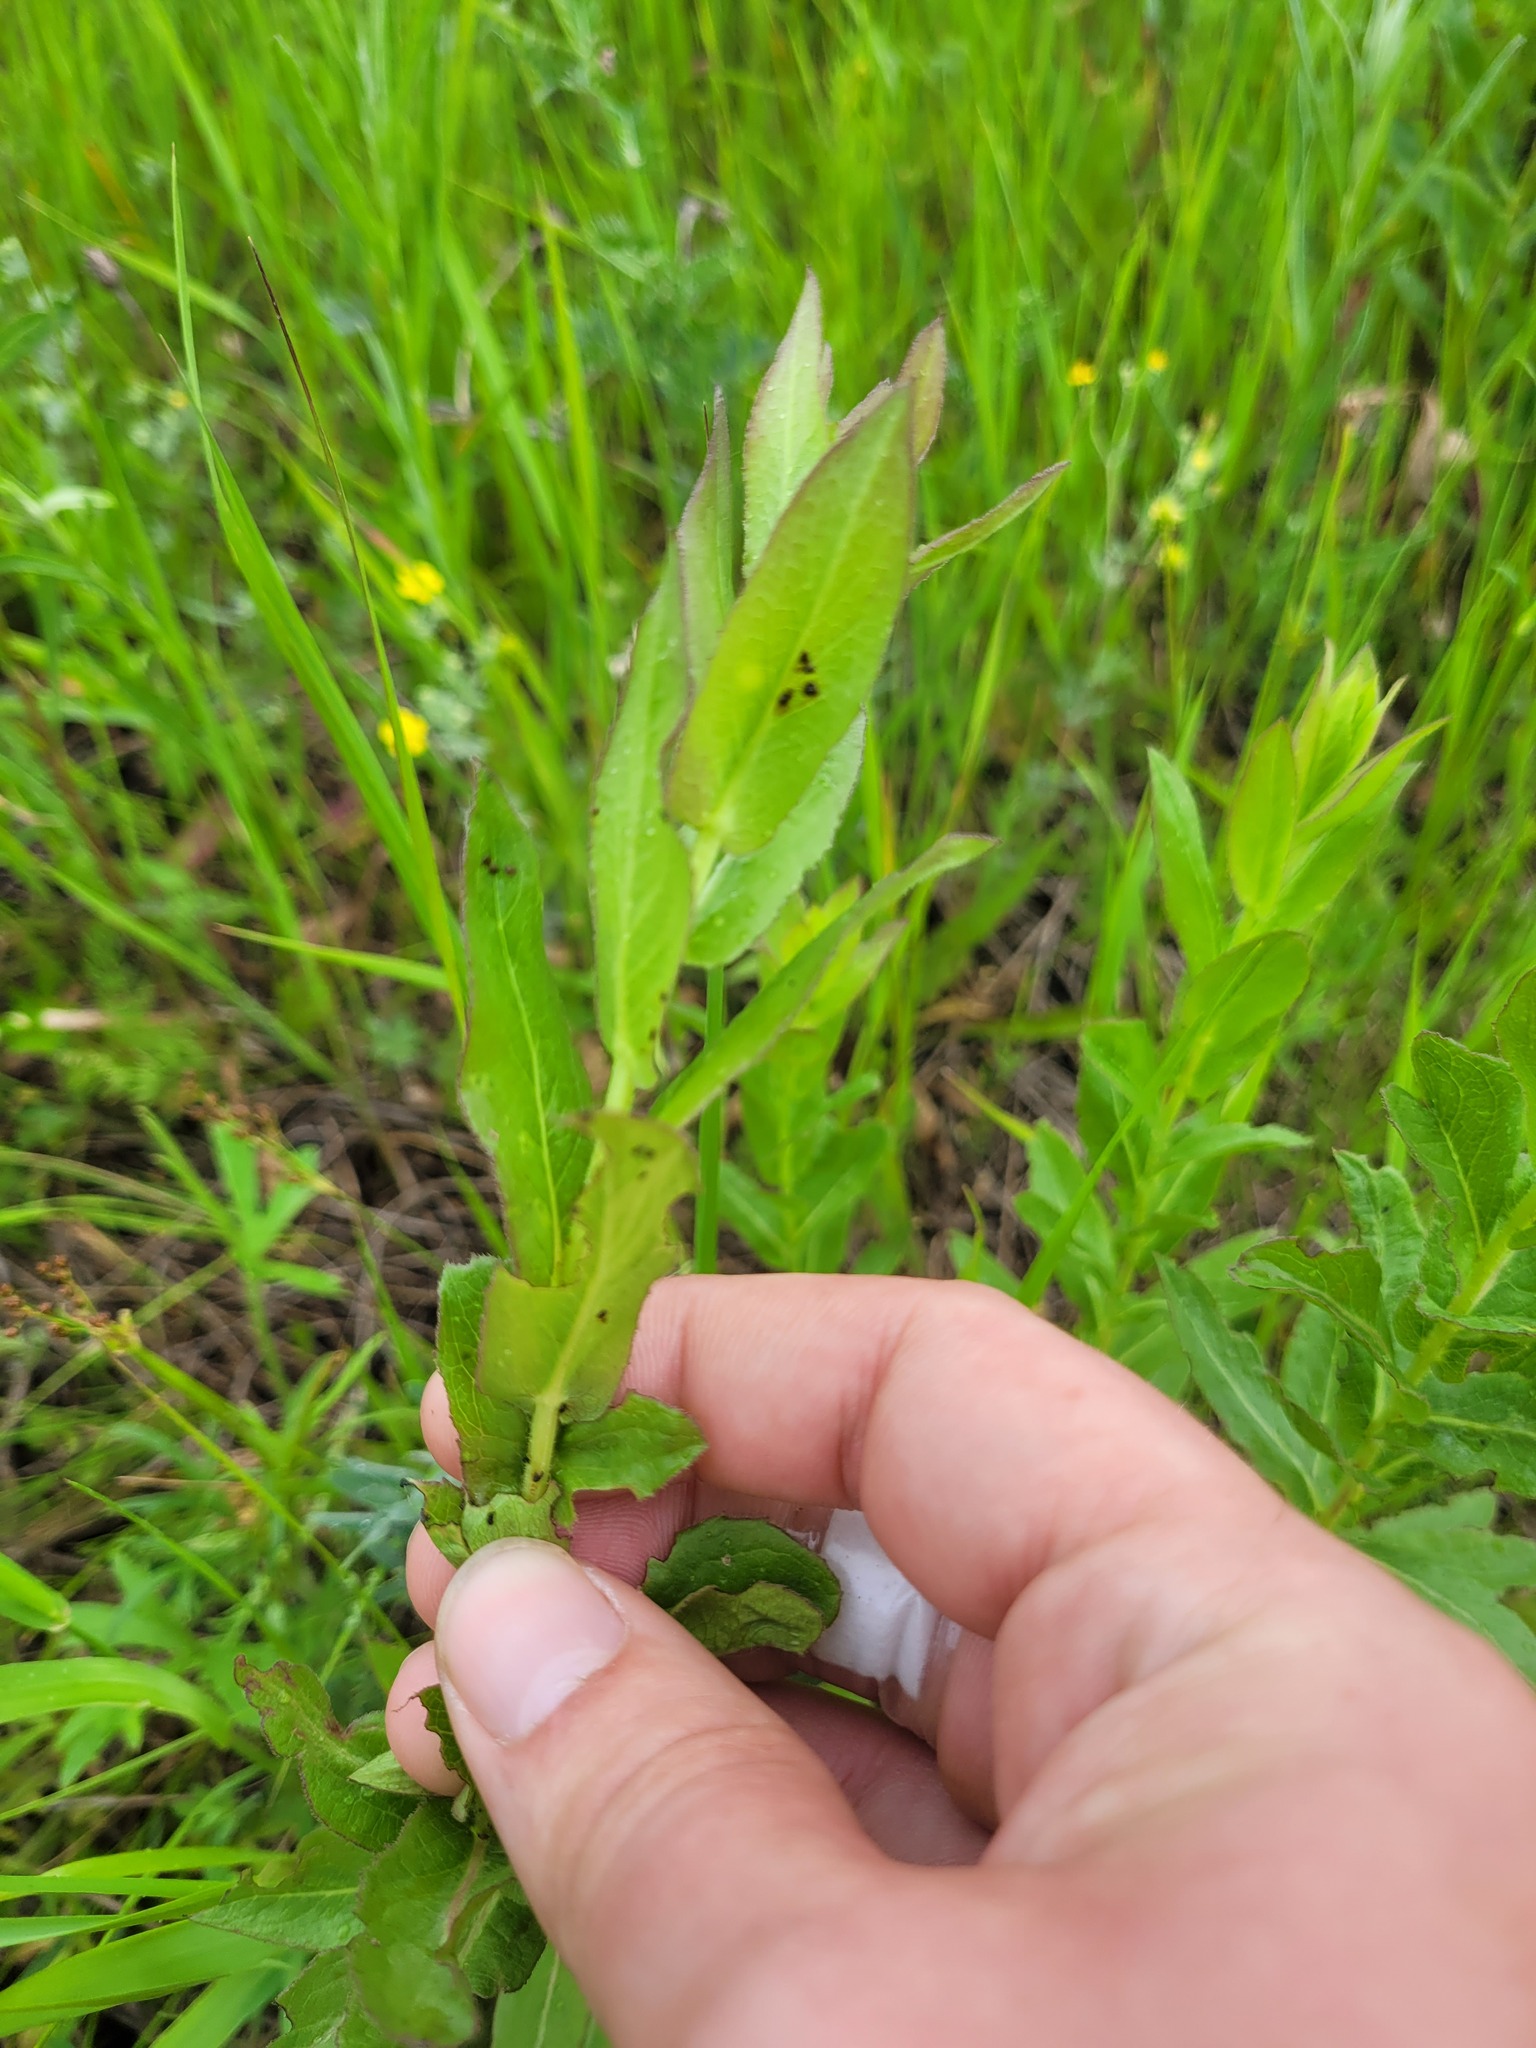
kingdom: Plantae
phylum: Tracheophyta
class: Magnoliopsida
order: Asterales
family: Asteraceae
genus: Pentanema
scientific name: Pentanema asperum
